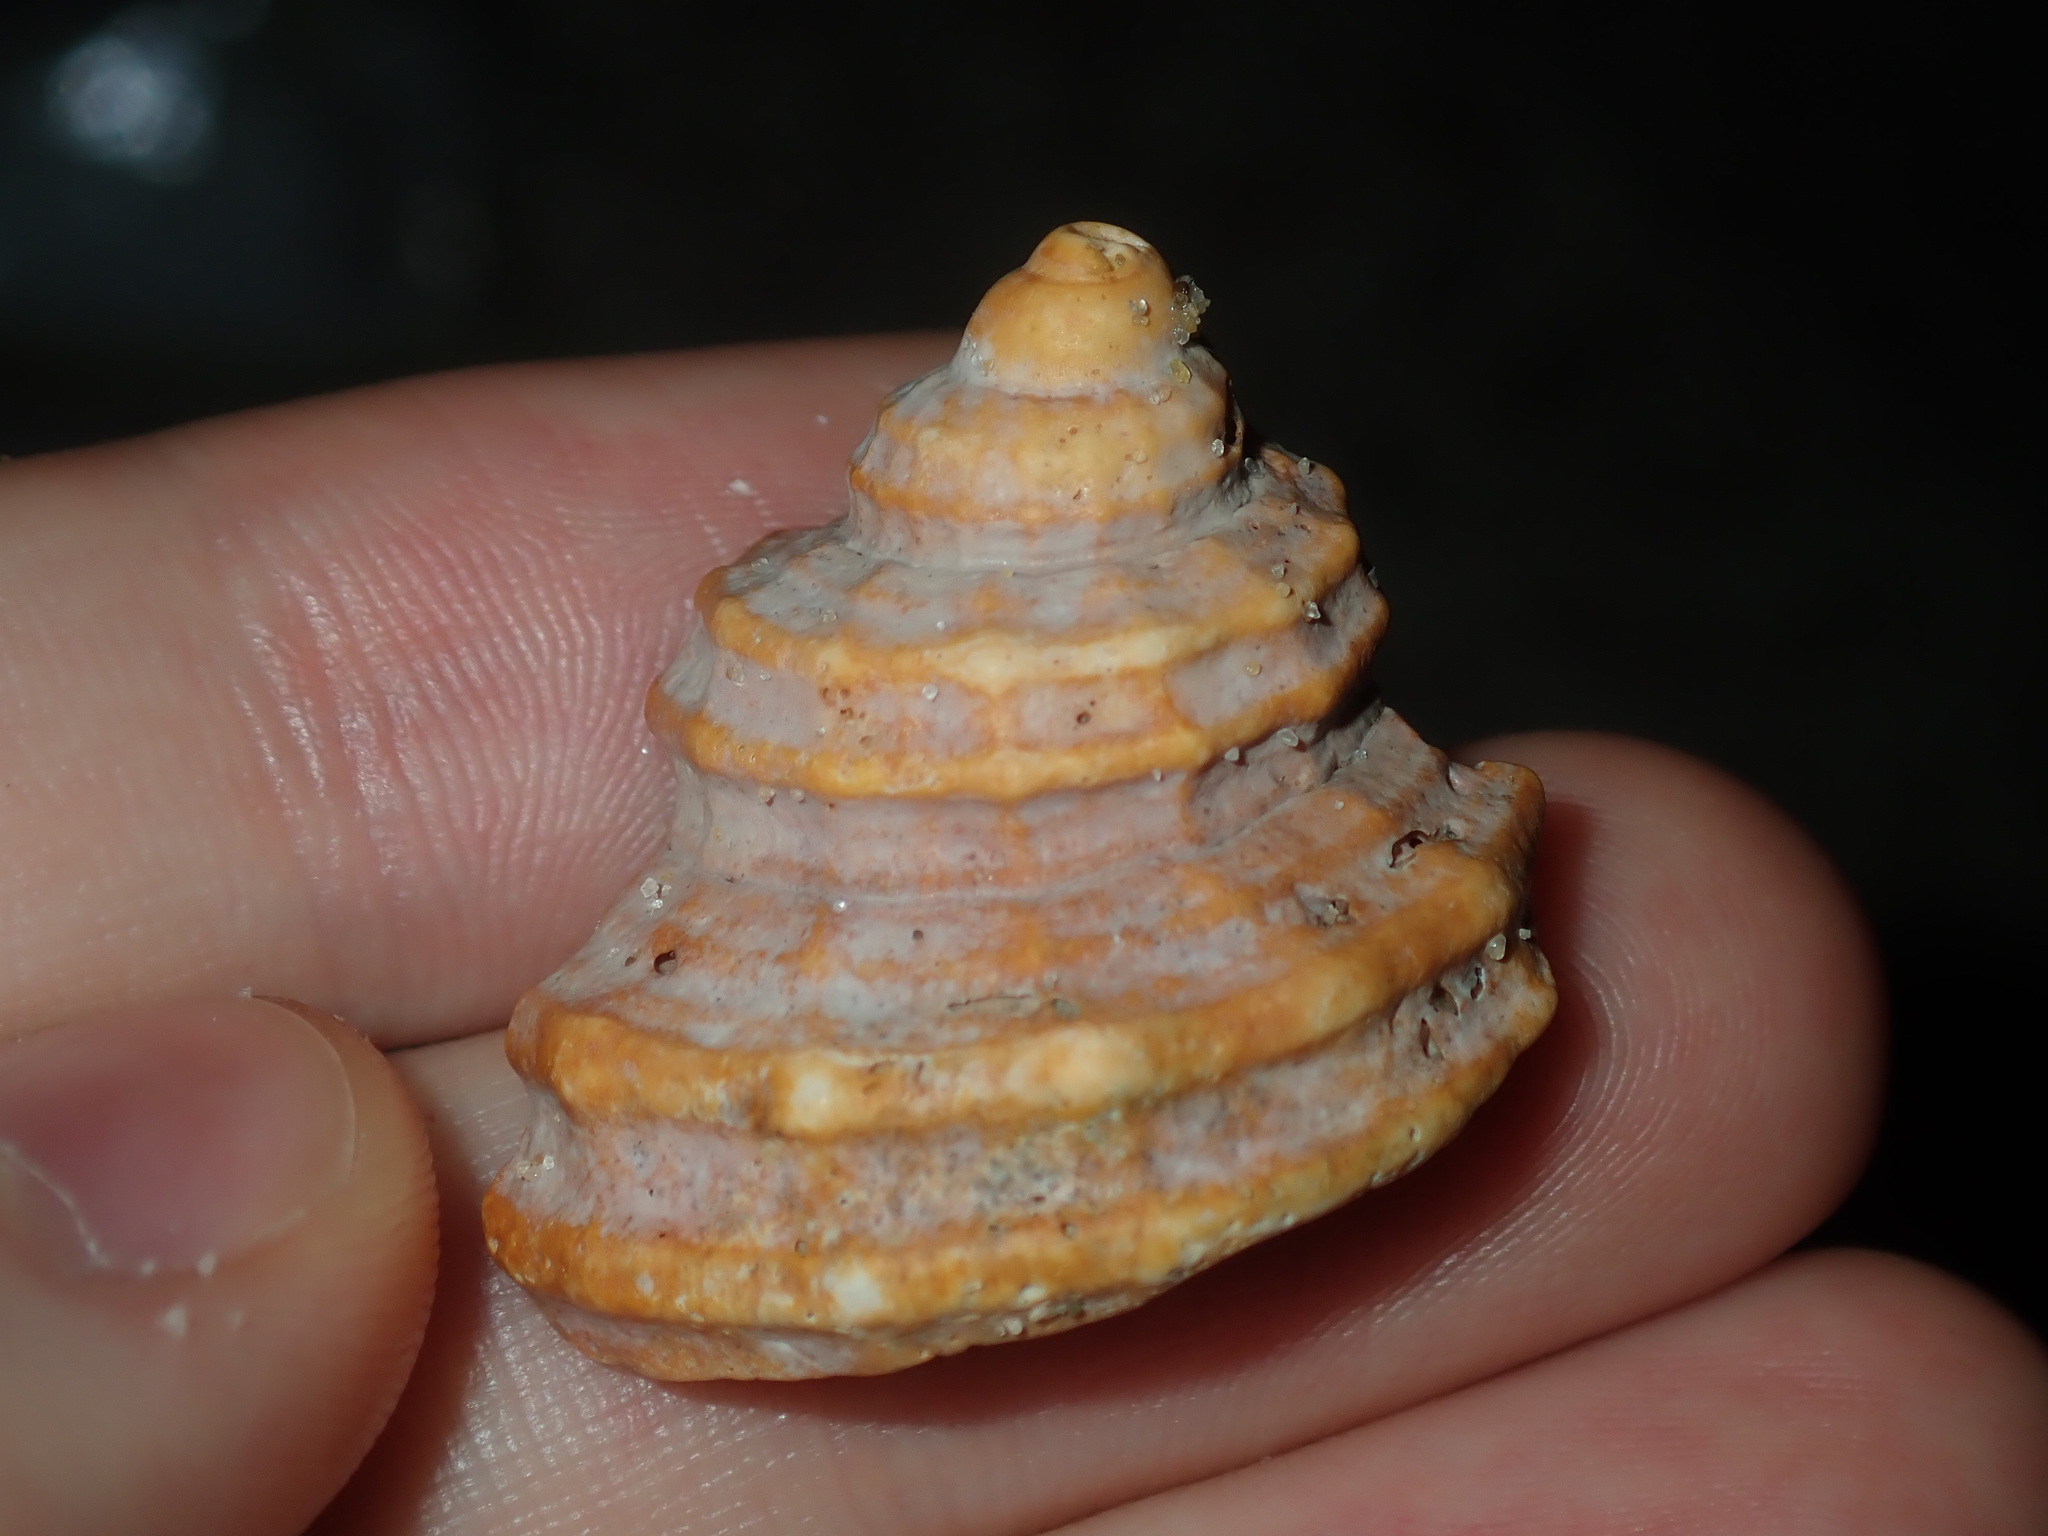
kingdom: Animalia
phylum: Mollusca
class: Gastropoda
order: Littorinimorpha
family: Cymatiidae
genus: Monoplex
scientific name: Monoplex parthenopeus
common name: Giant triton
